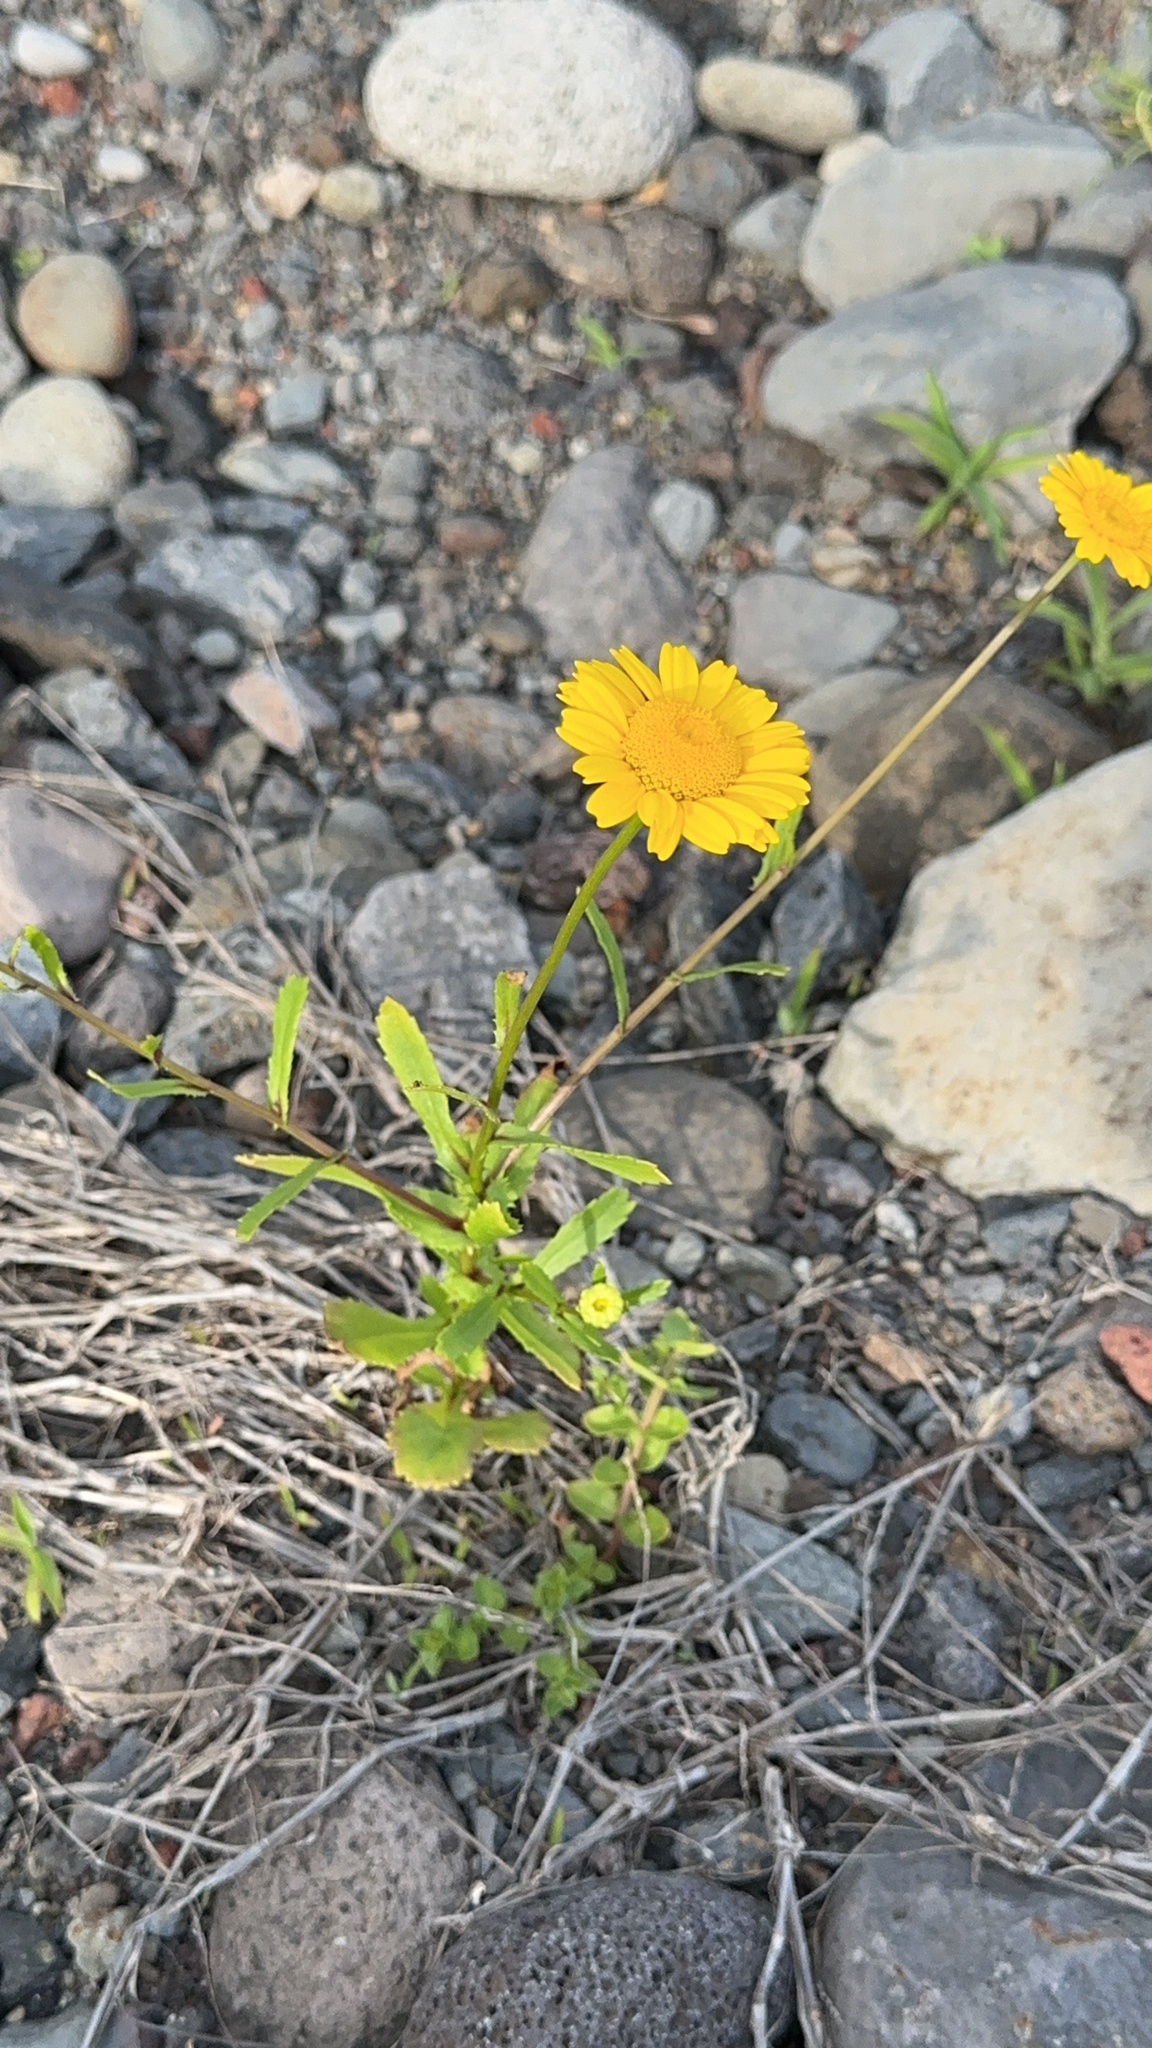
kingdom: Plantae
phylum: Tracheophyta
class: Magnoliopsida
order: Asterales
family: Asteraceae
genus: Coleostephus
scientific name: Coleostephus myconis
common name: Mediterranean marigold
